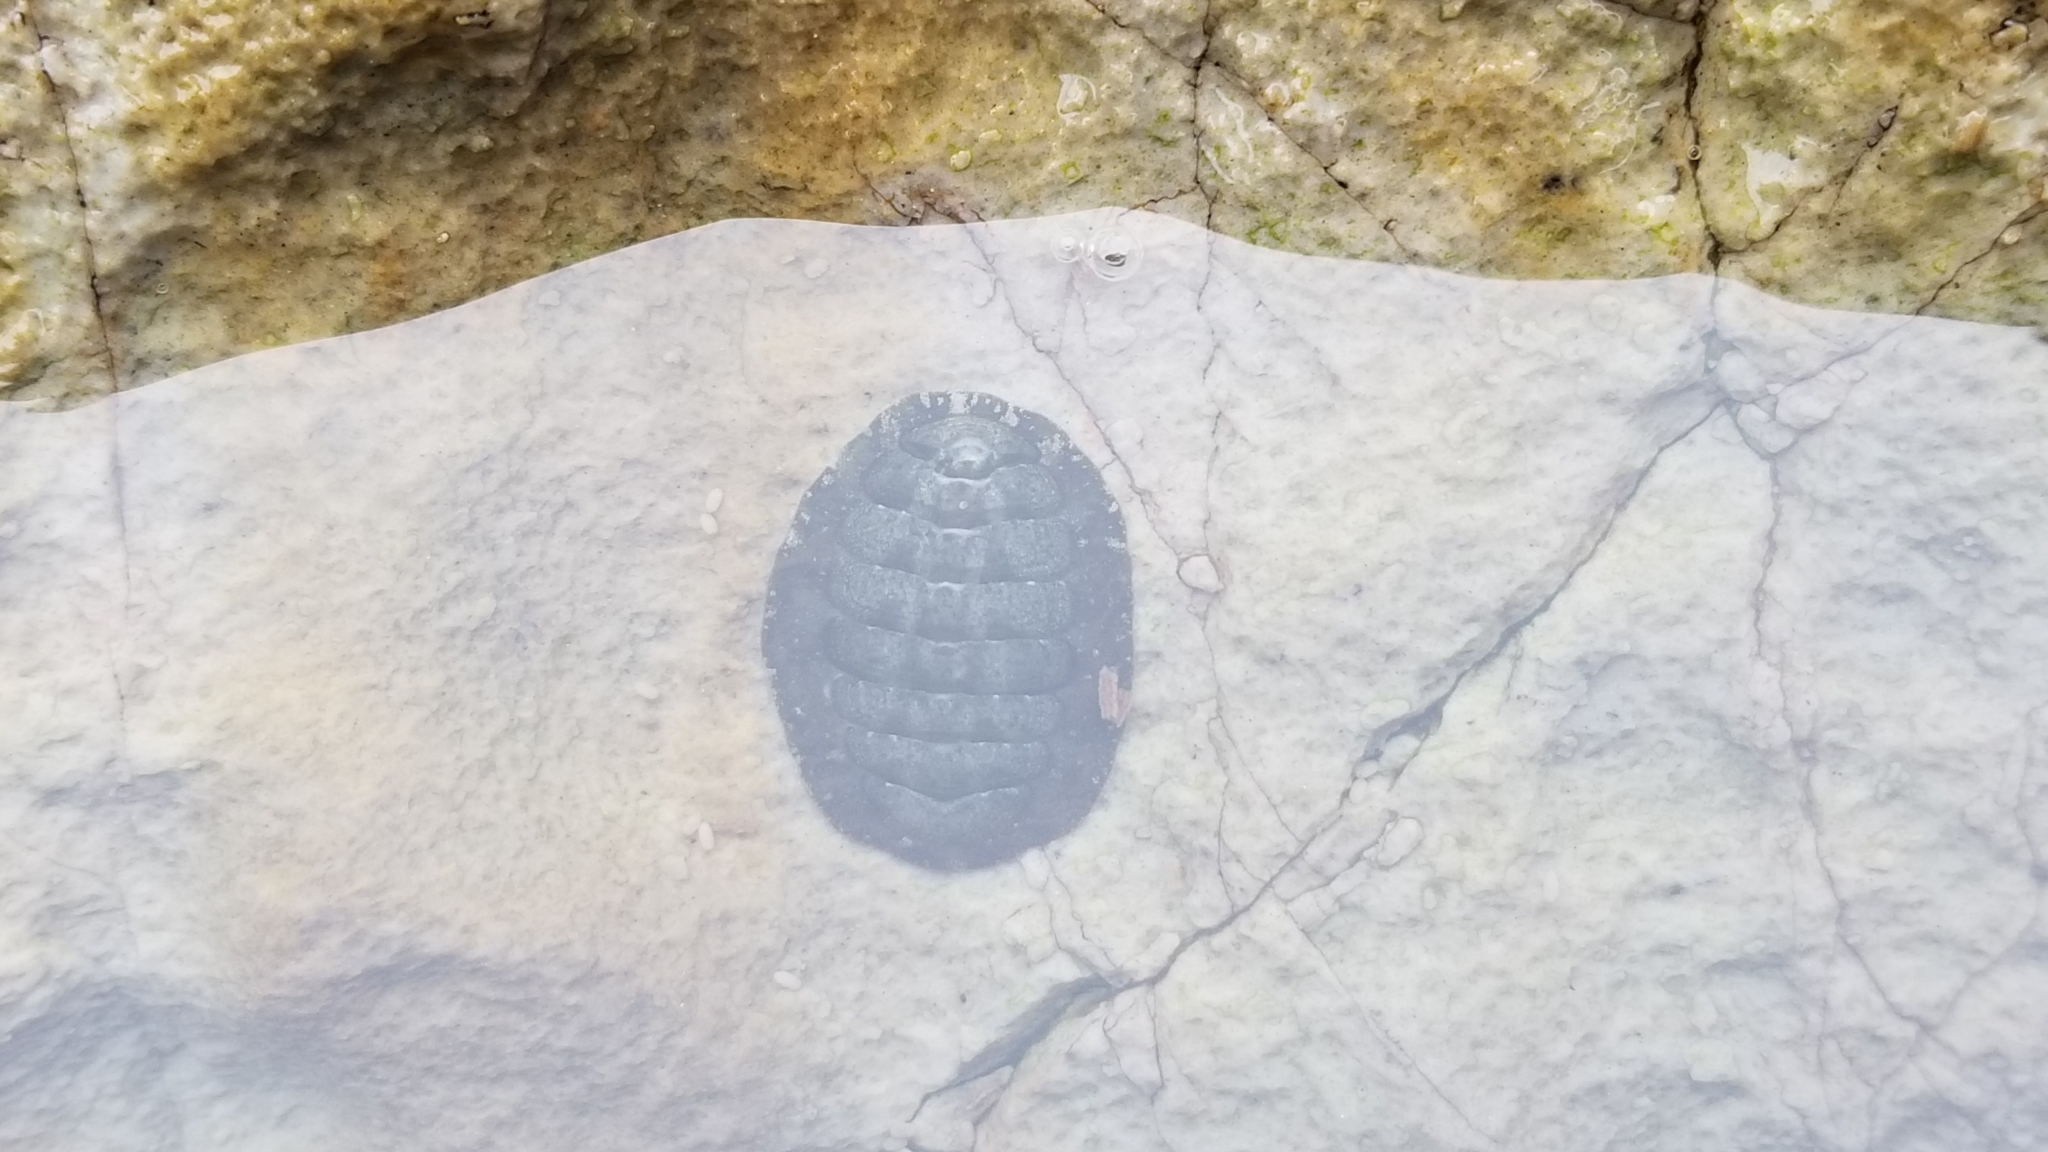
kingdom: Animalia
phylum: Mollusca
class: Polyplacophora
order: Chitonida
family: Tonicellidae
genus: Cyanoplax
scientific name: Cyanoplax hartwegii
